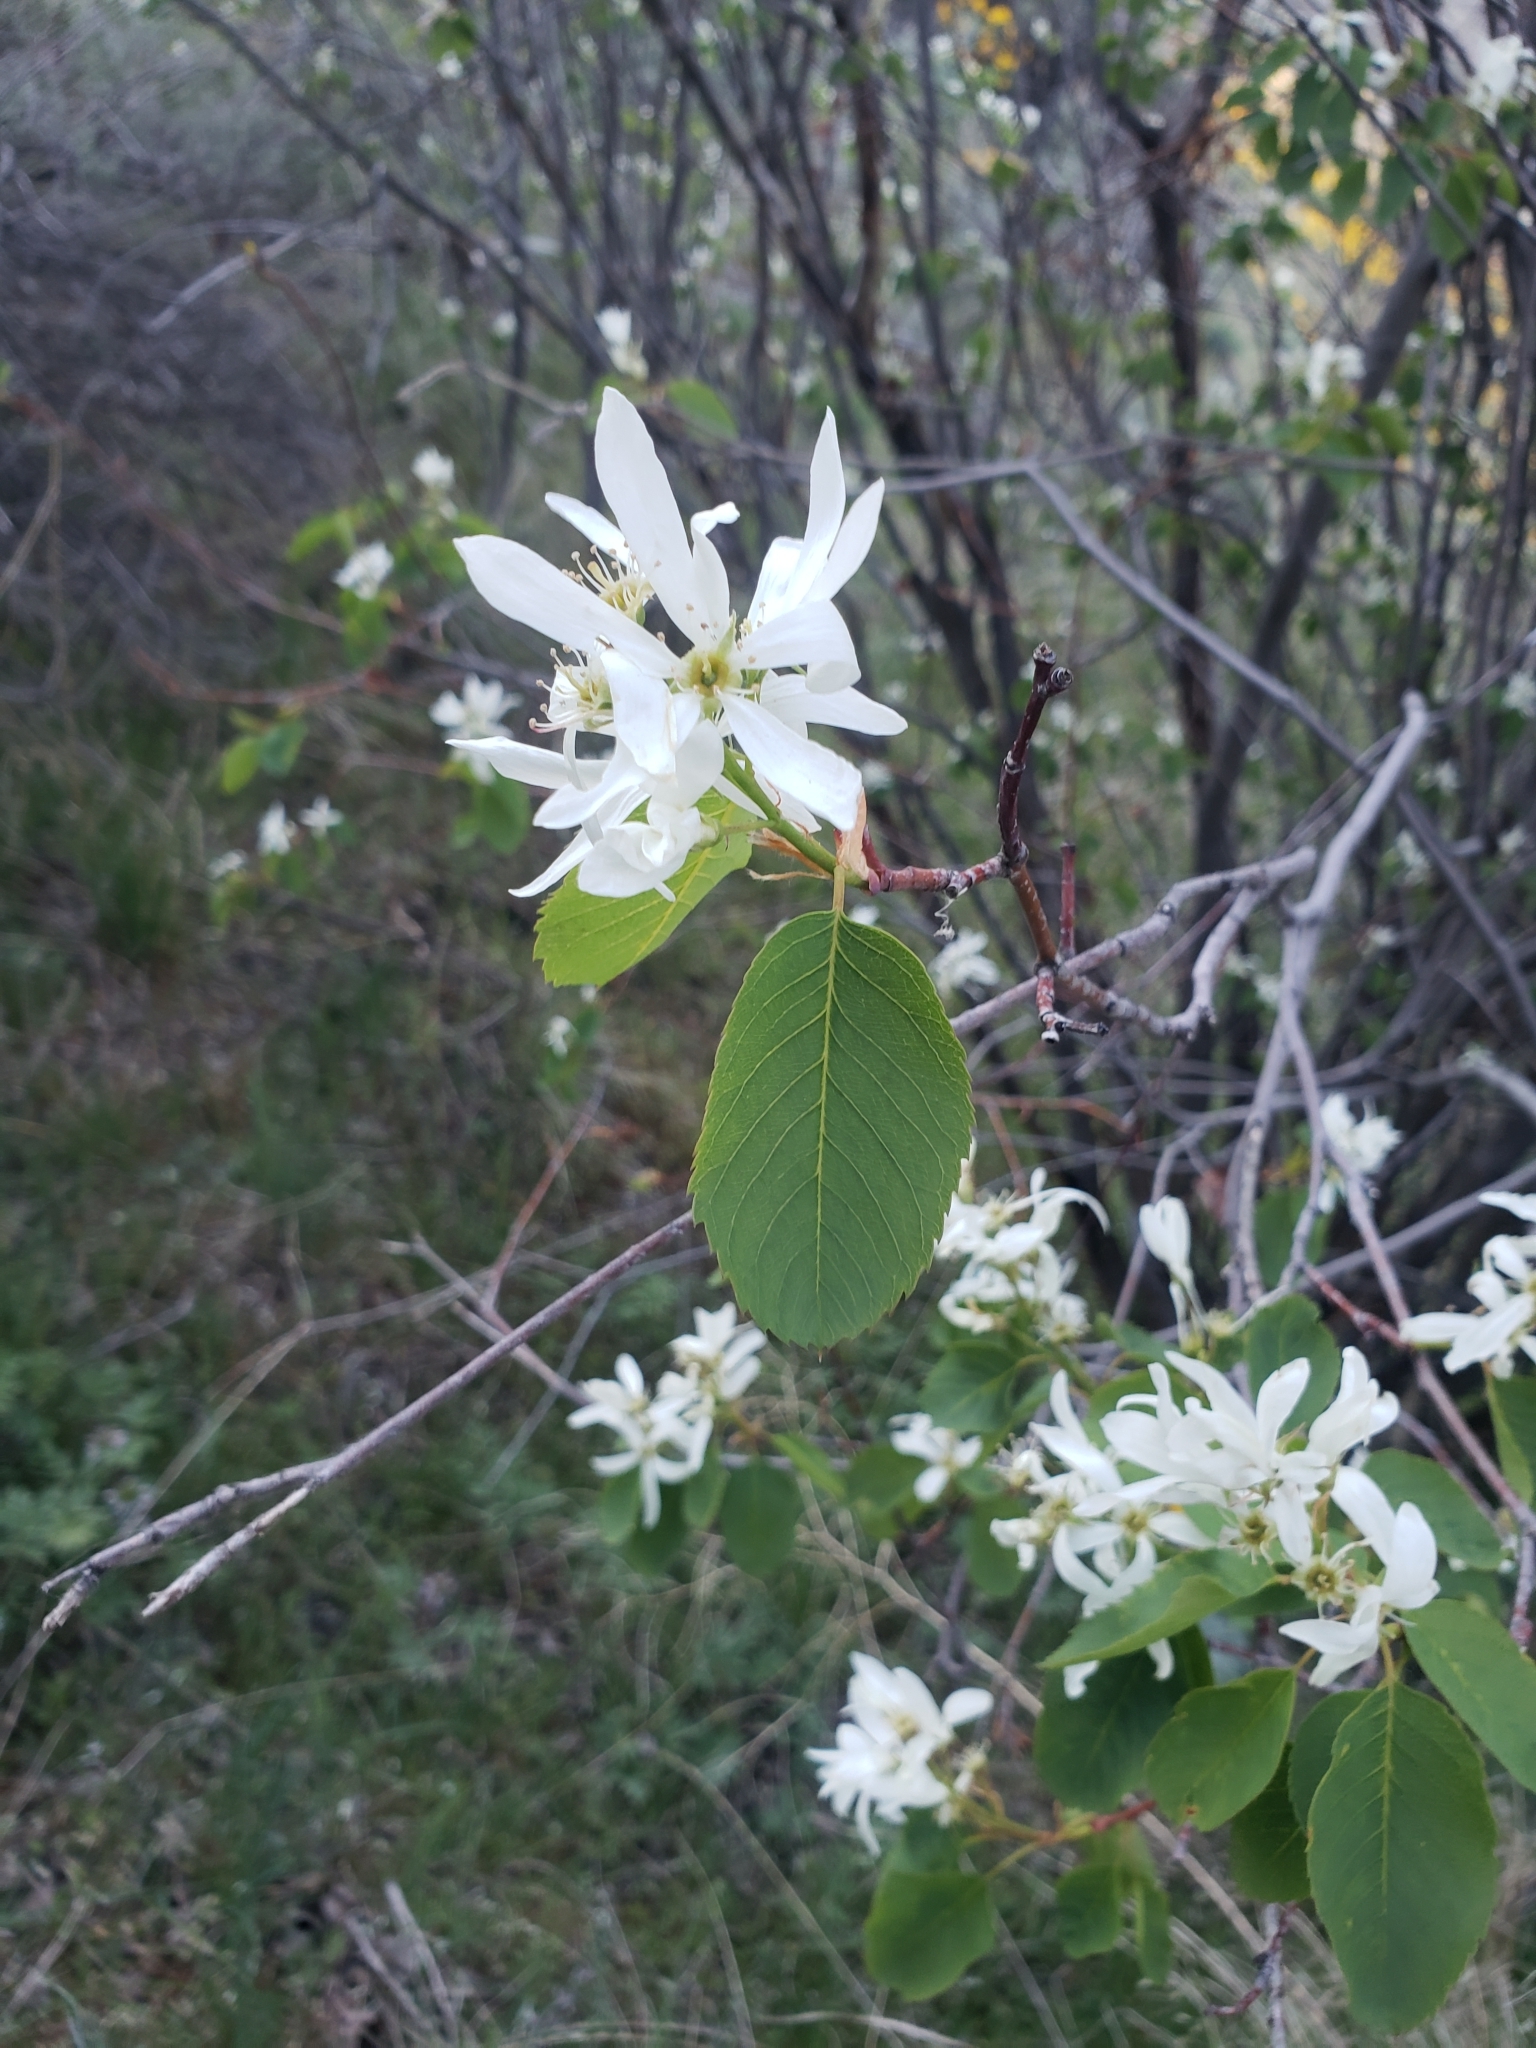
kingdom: Plantae
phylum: Tracheophyta
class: Magnoliopsida
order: Rosales
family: Rosaceae
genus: Amelanchier
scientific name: Amelanchier alnifolia
